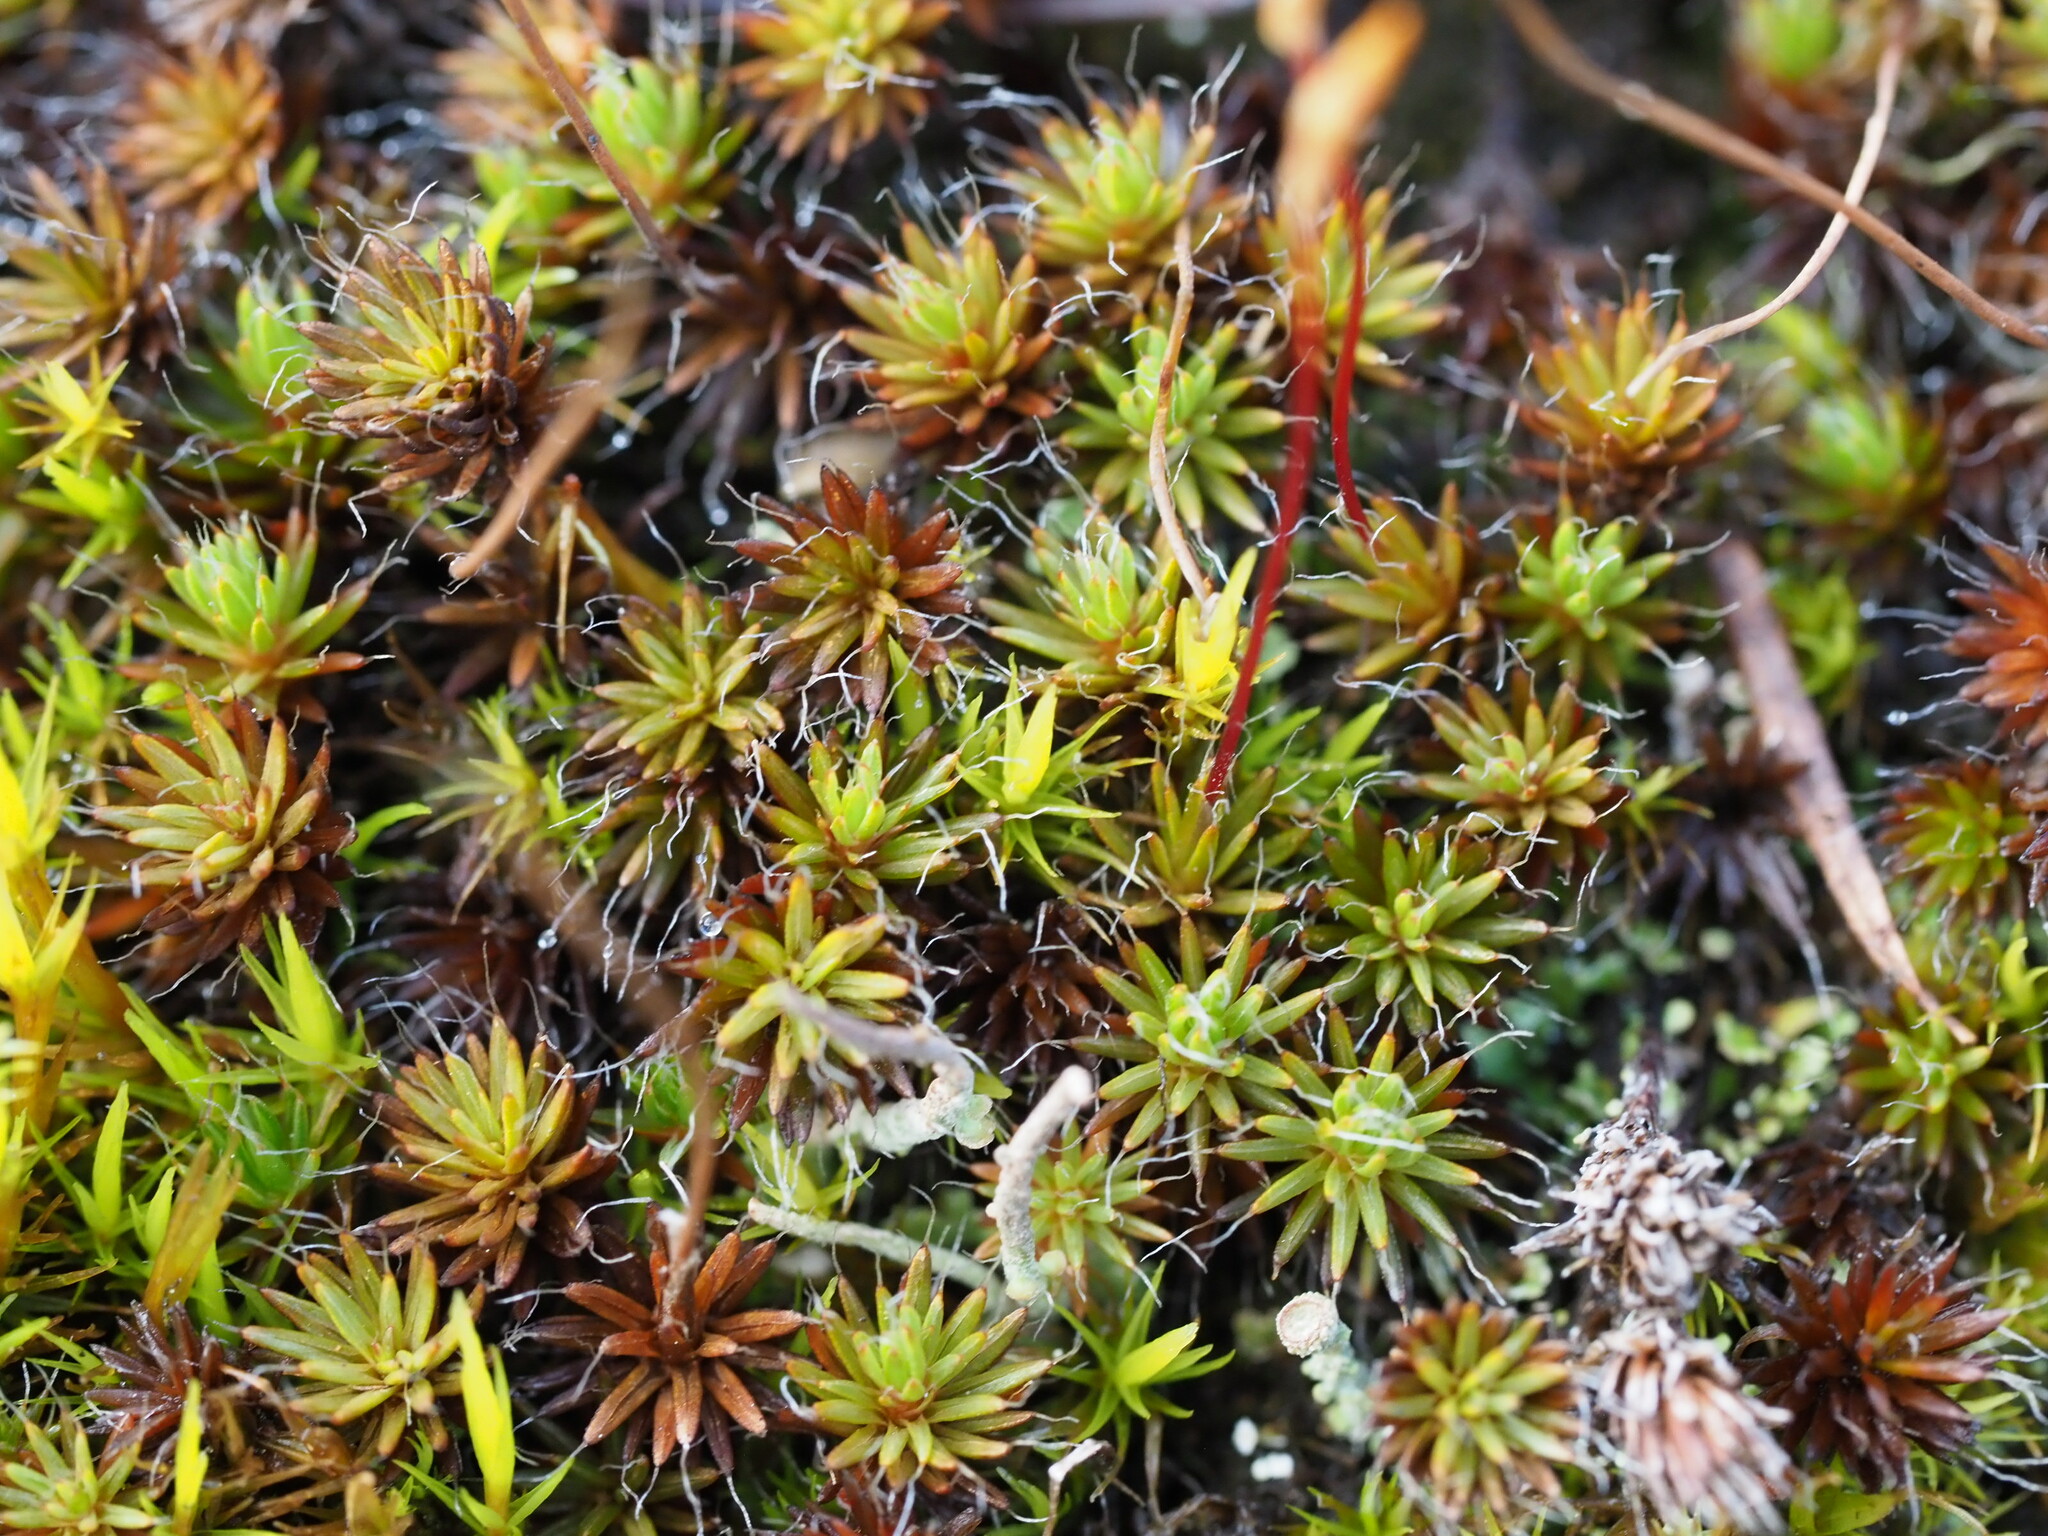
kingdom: Plantae
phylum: Bryophyta
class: Polytrichopsida
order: Polytrichales
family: Polytrichaceae
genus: Polytrichum
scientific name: Polytrichum piliferum
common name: Bristly haircap
